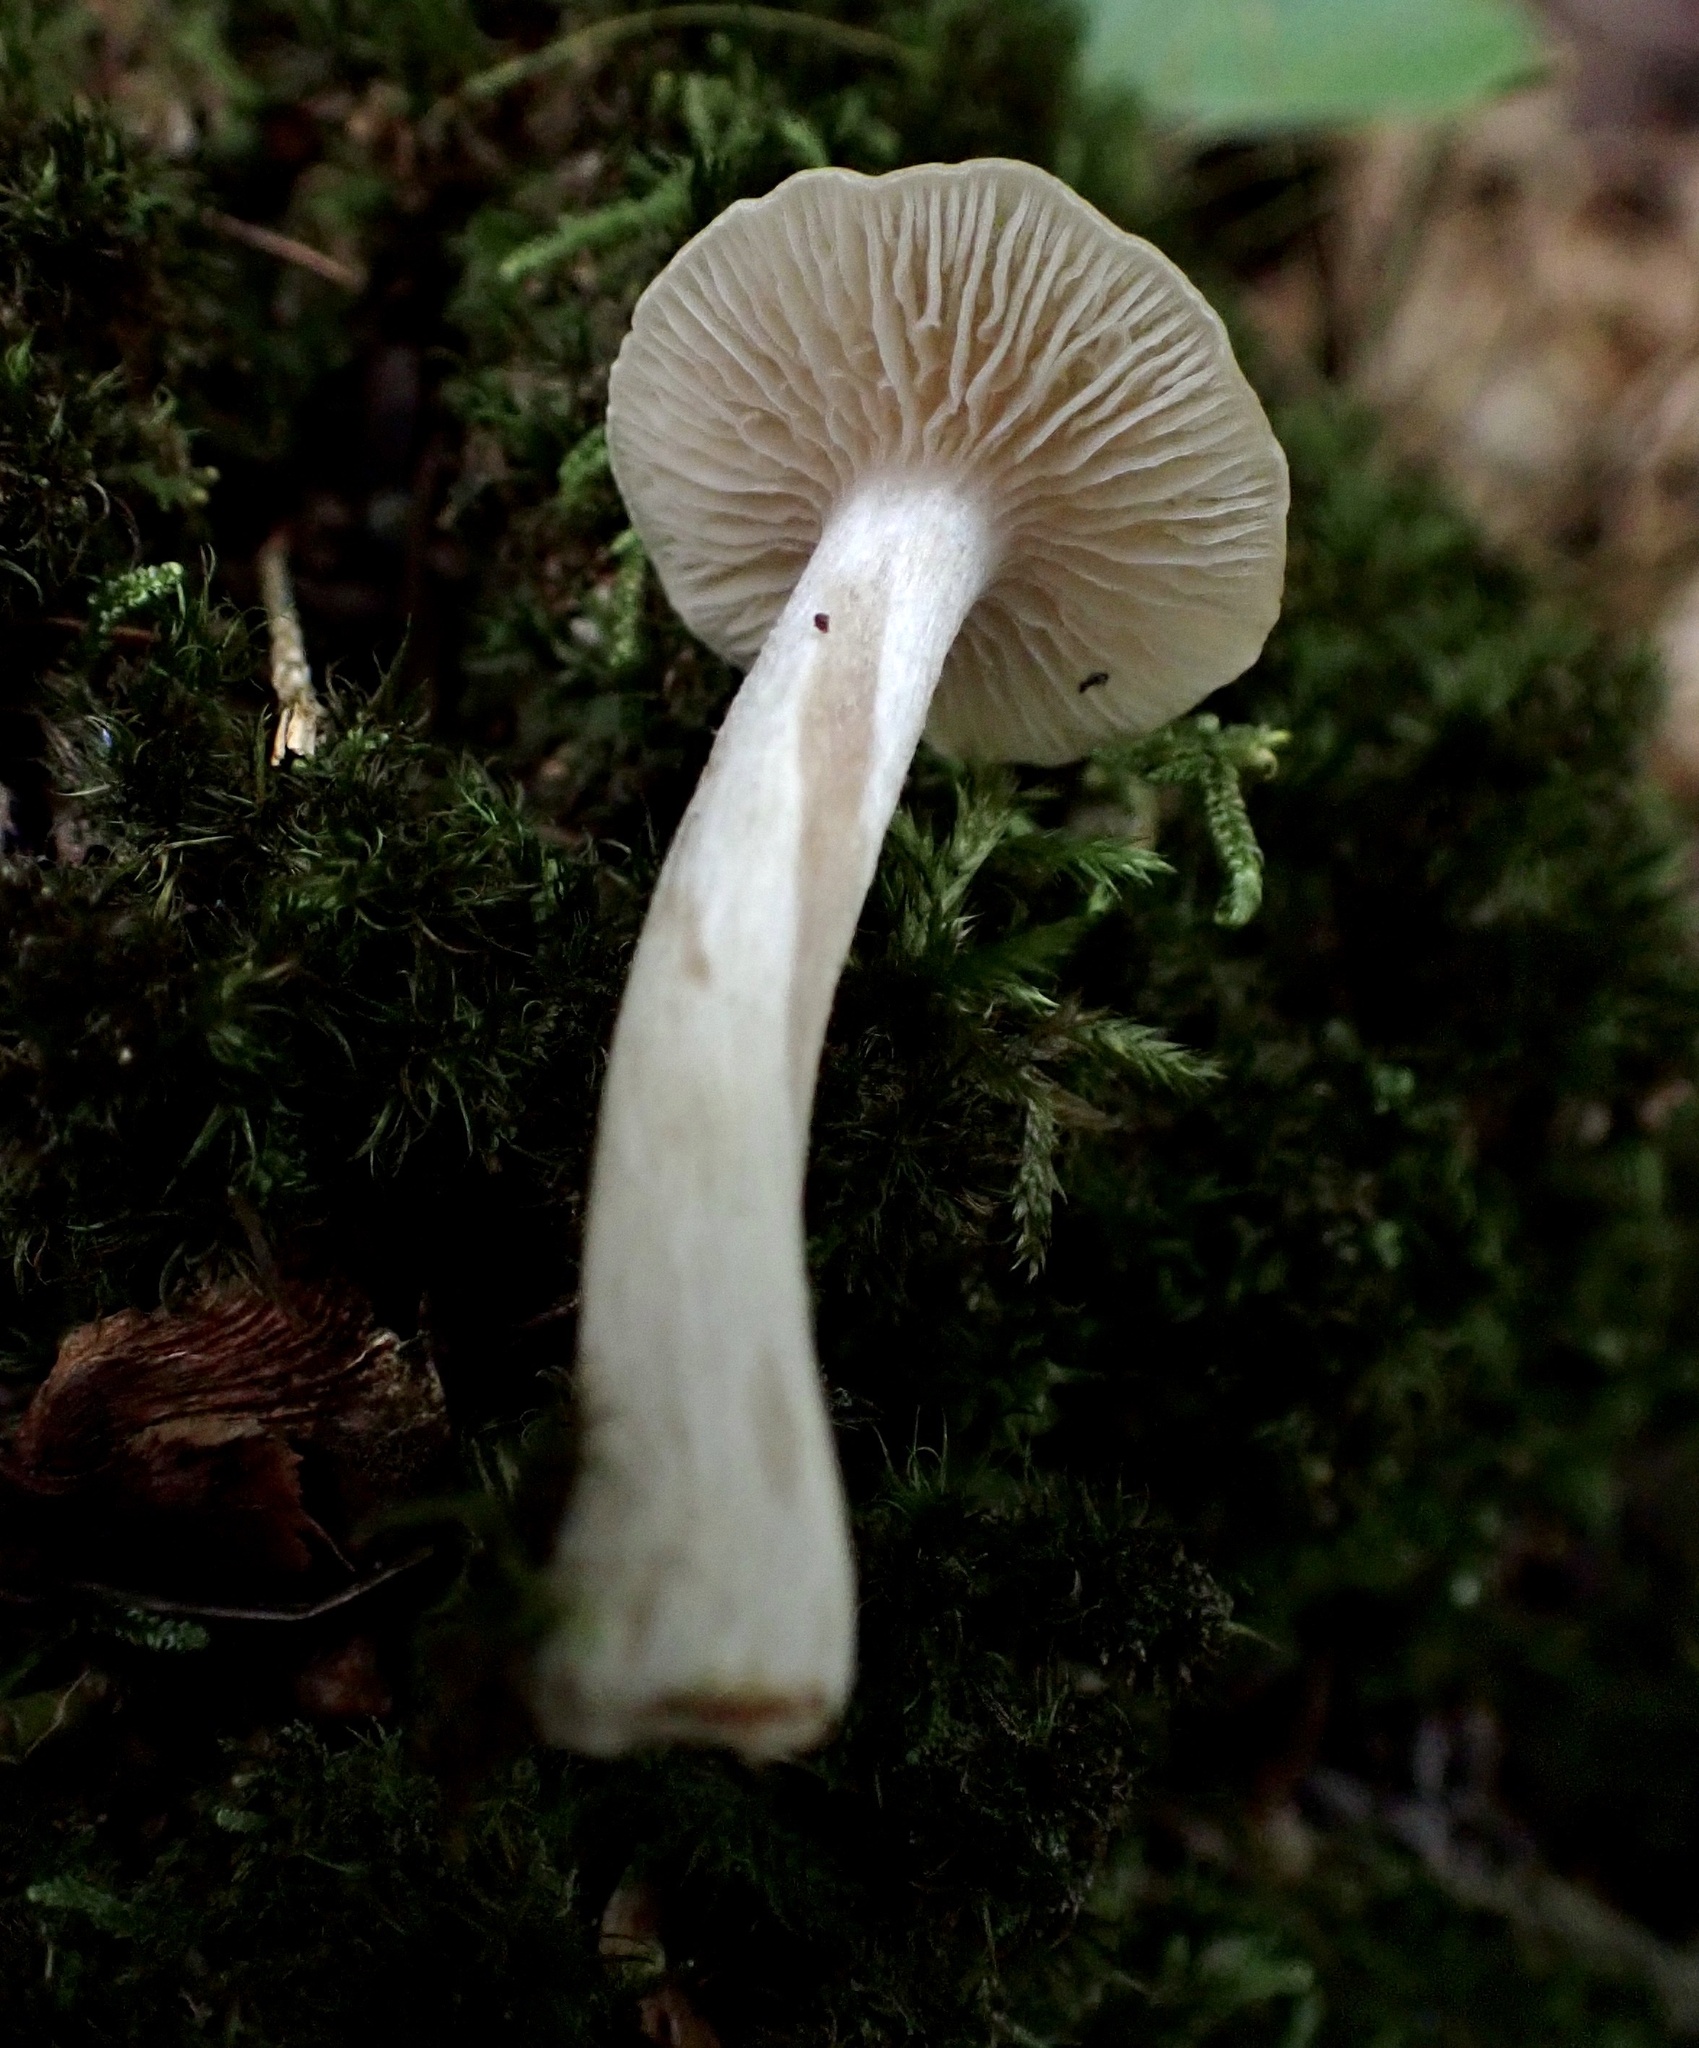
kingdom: Fungi
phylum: Basidiomycota
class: Agaricomycetes
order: Agaricales
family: Entolomataceae
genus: Entoloma
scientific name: Entoloma strictius
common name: Straight-stalked entoloma
